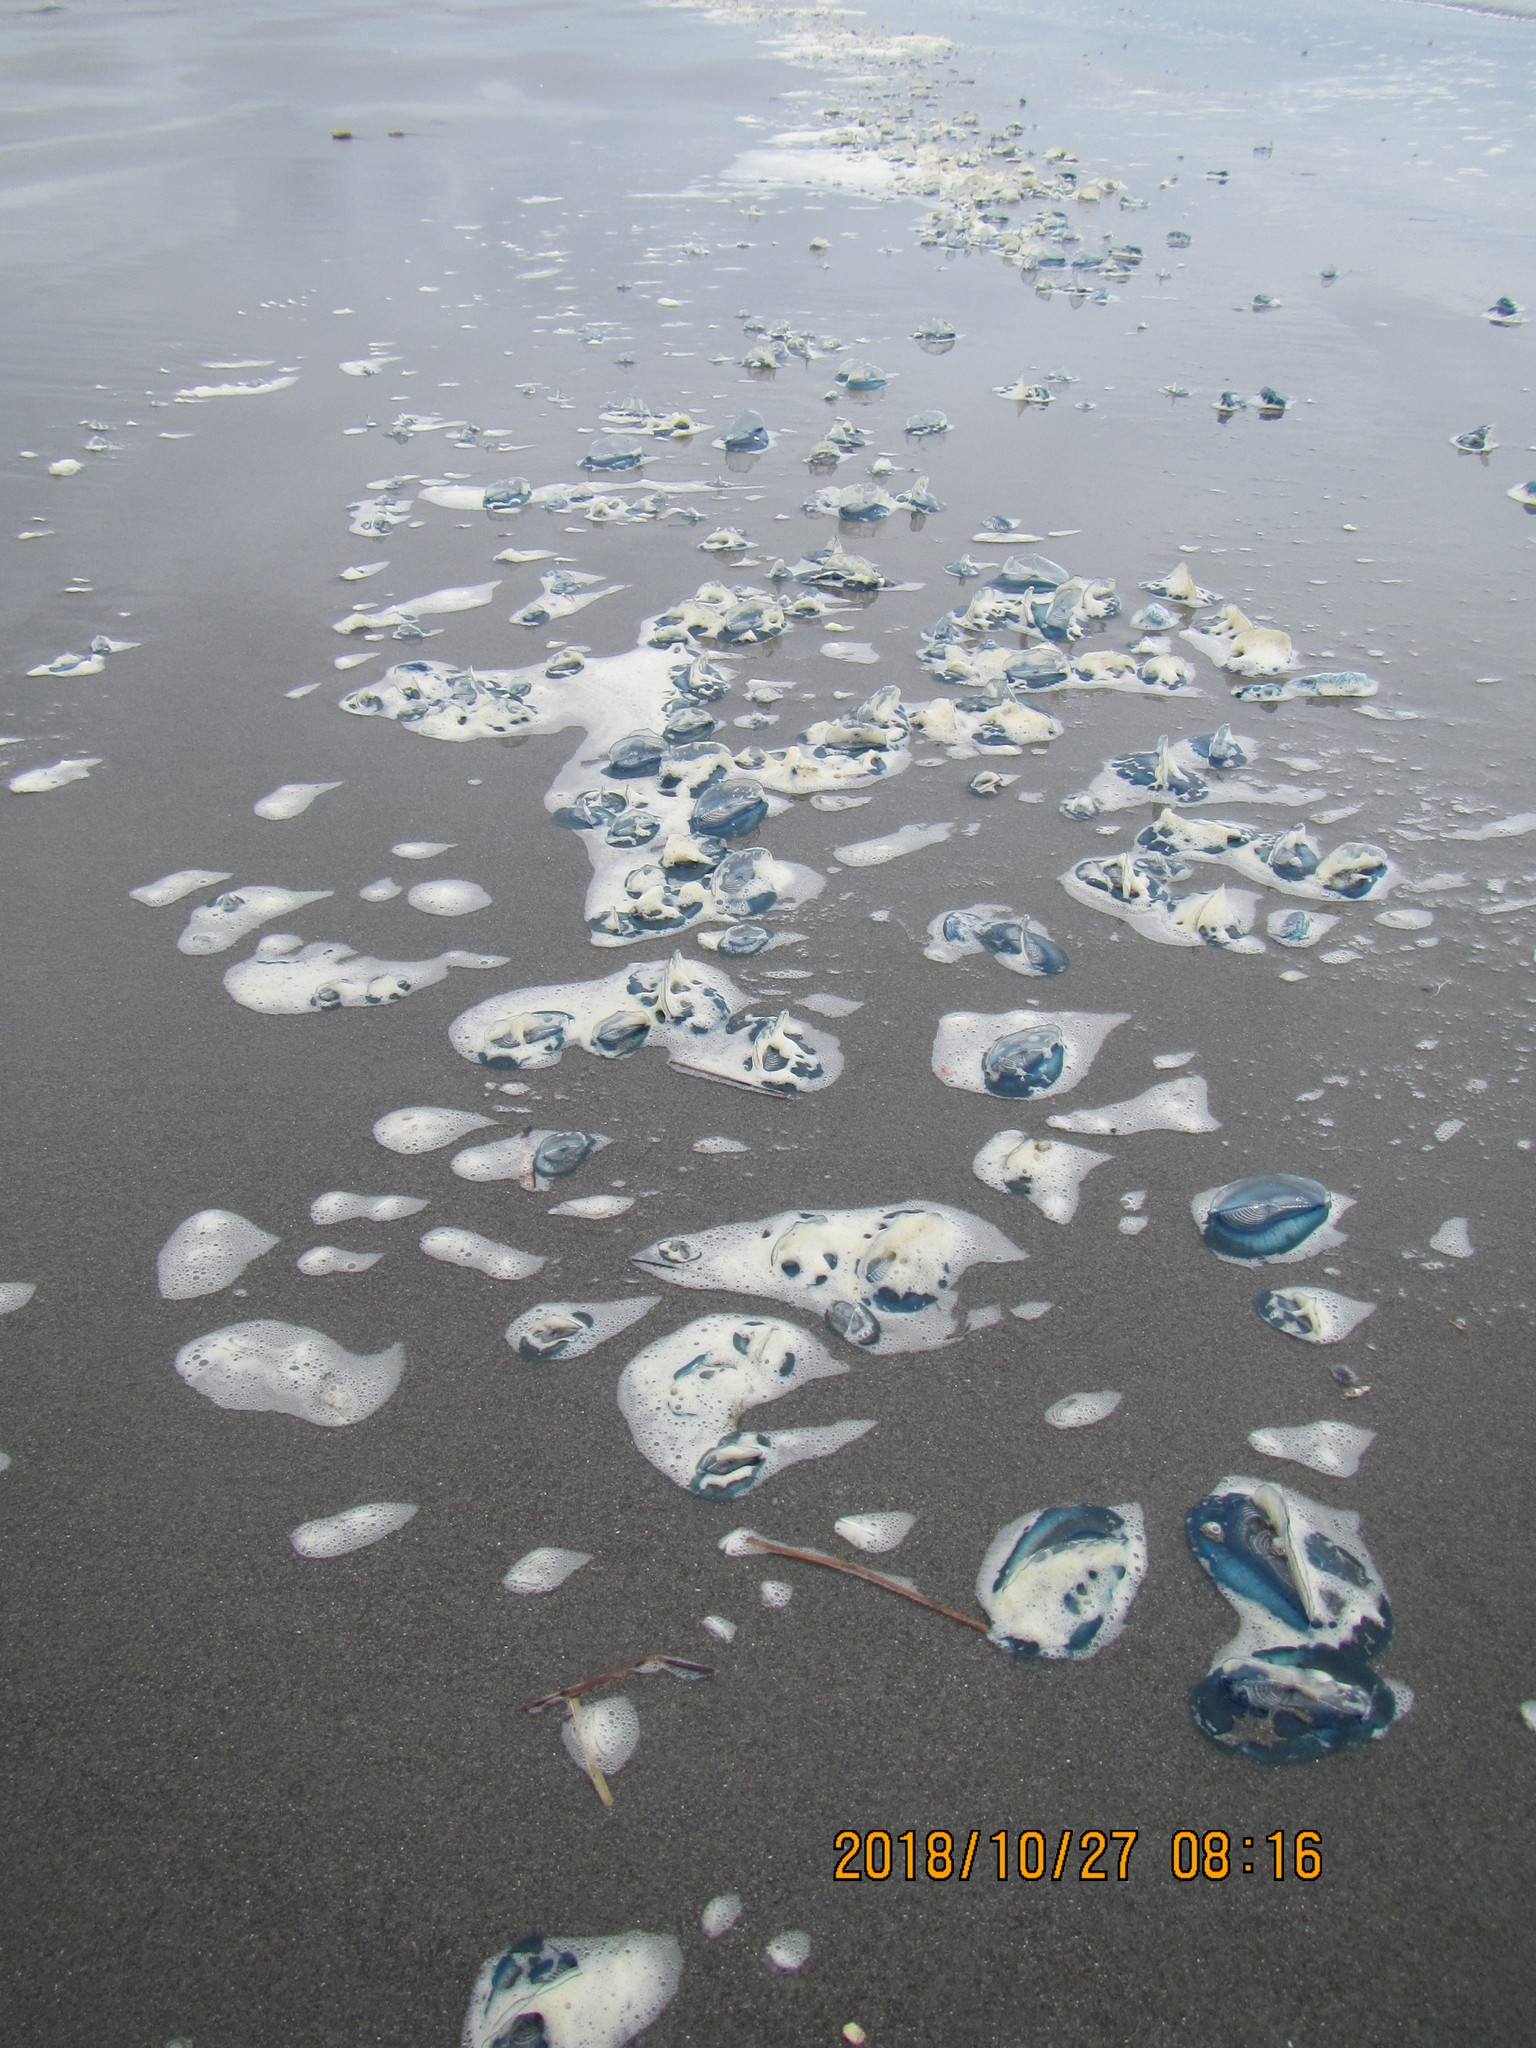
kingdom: Animalia
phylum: Cnidaria
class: Hydrozoa
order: Anthoathecata
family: Porpitidae
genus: Velella
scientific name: Velella velella
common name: By-the-wind-sailor
